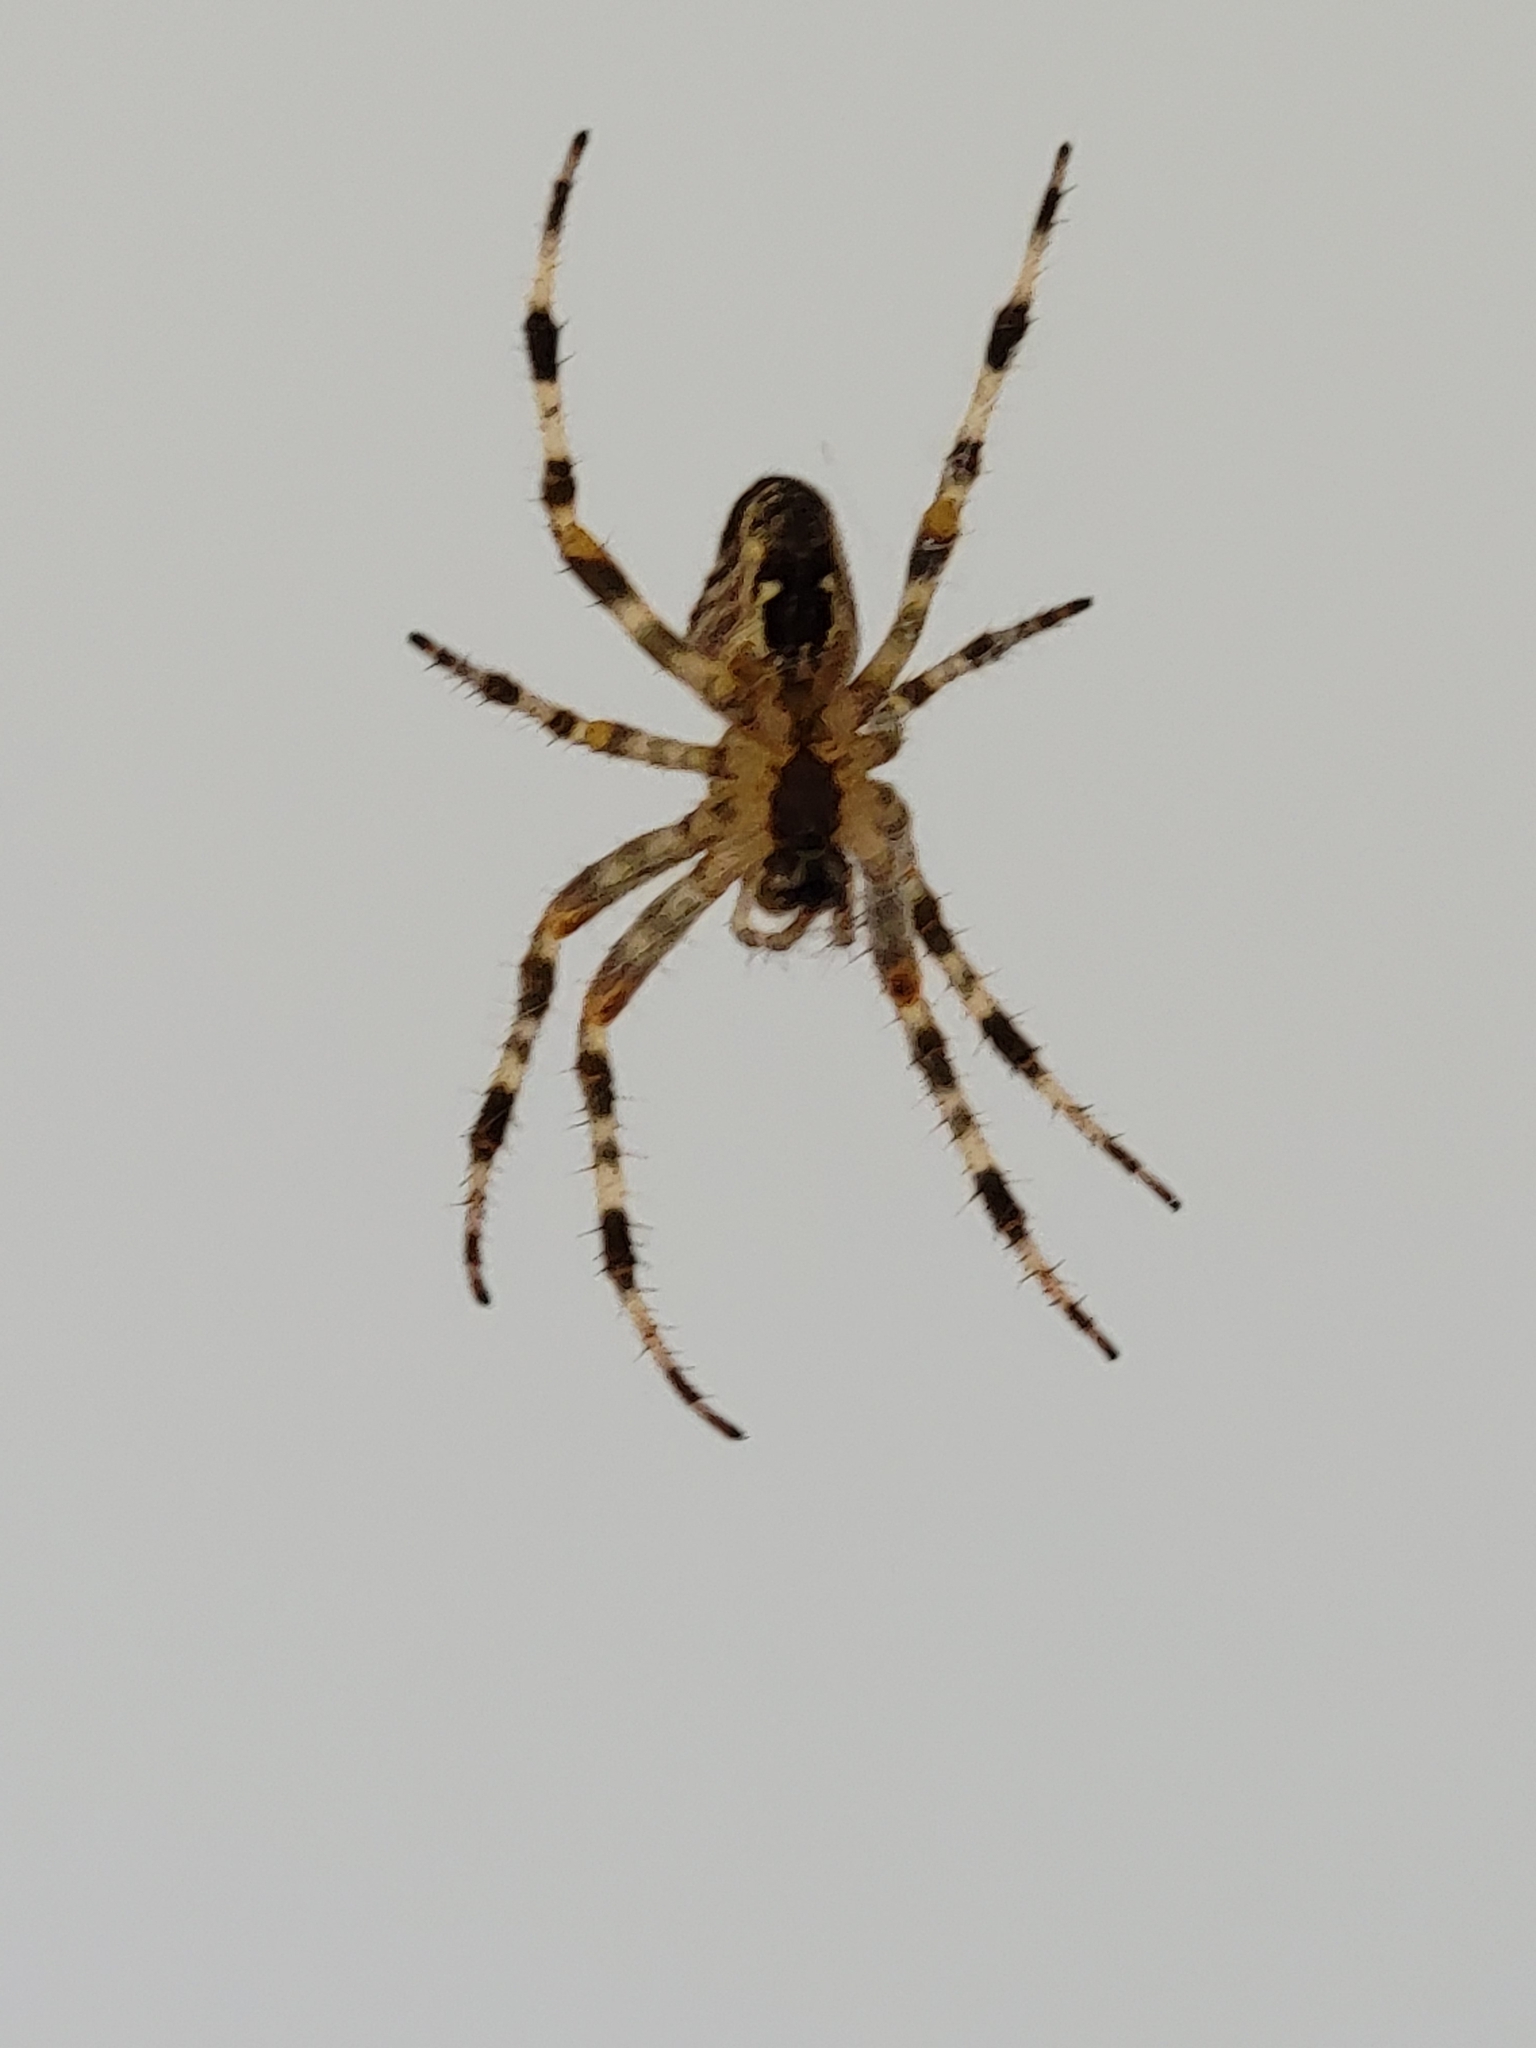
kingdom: Animalia
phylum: Arthropoda
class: Arachnida
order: Araneae
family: Araneidae
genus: Araneus
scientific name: Araneus diadematus
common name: Cross orbweaver
